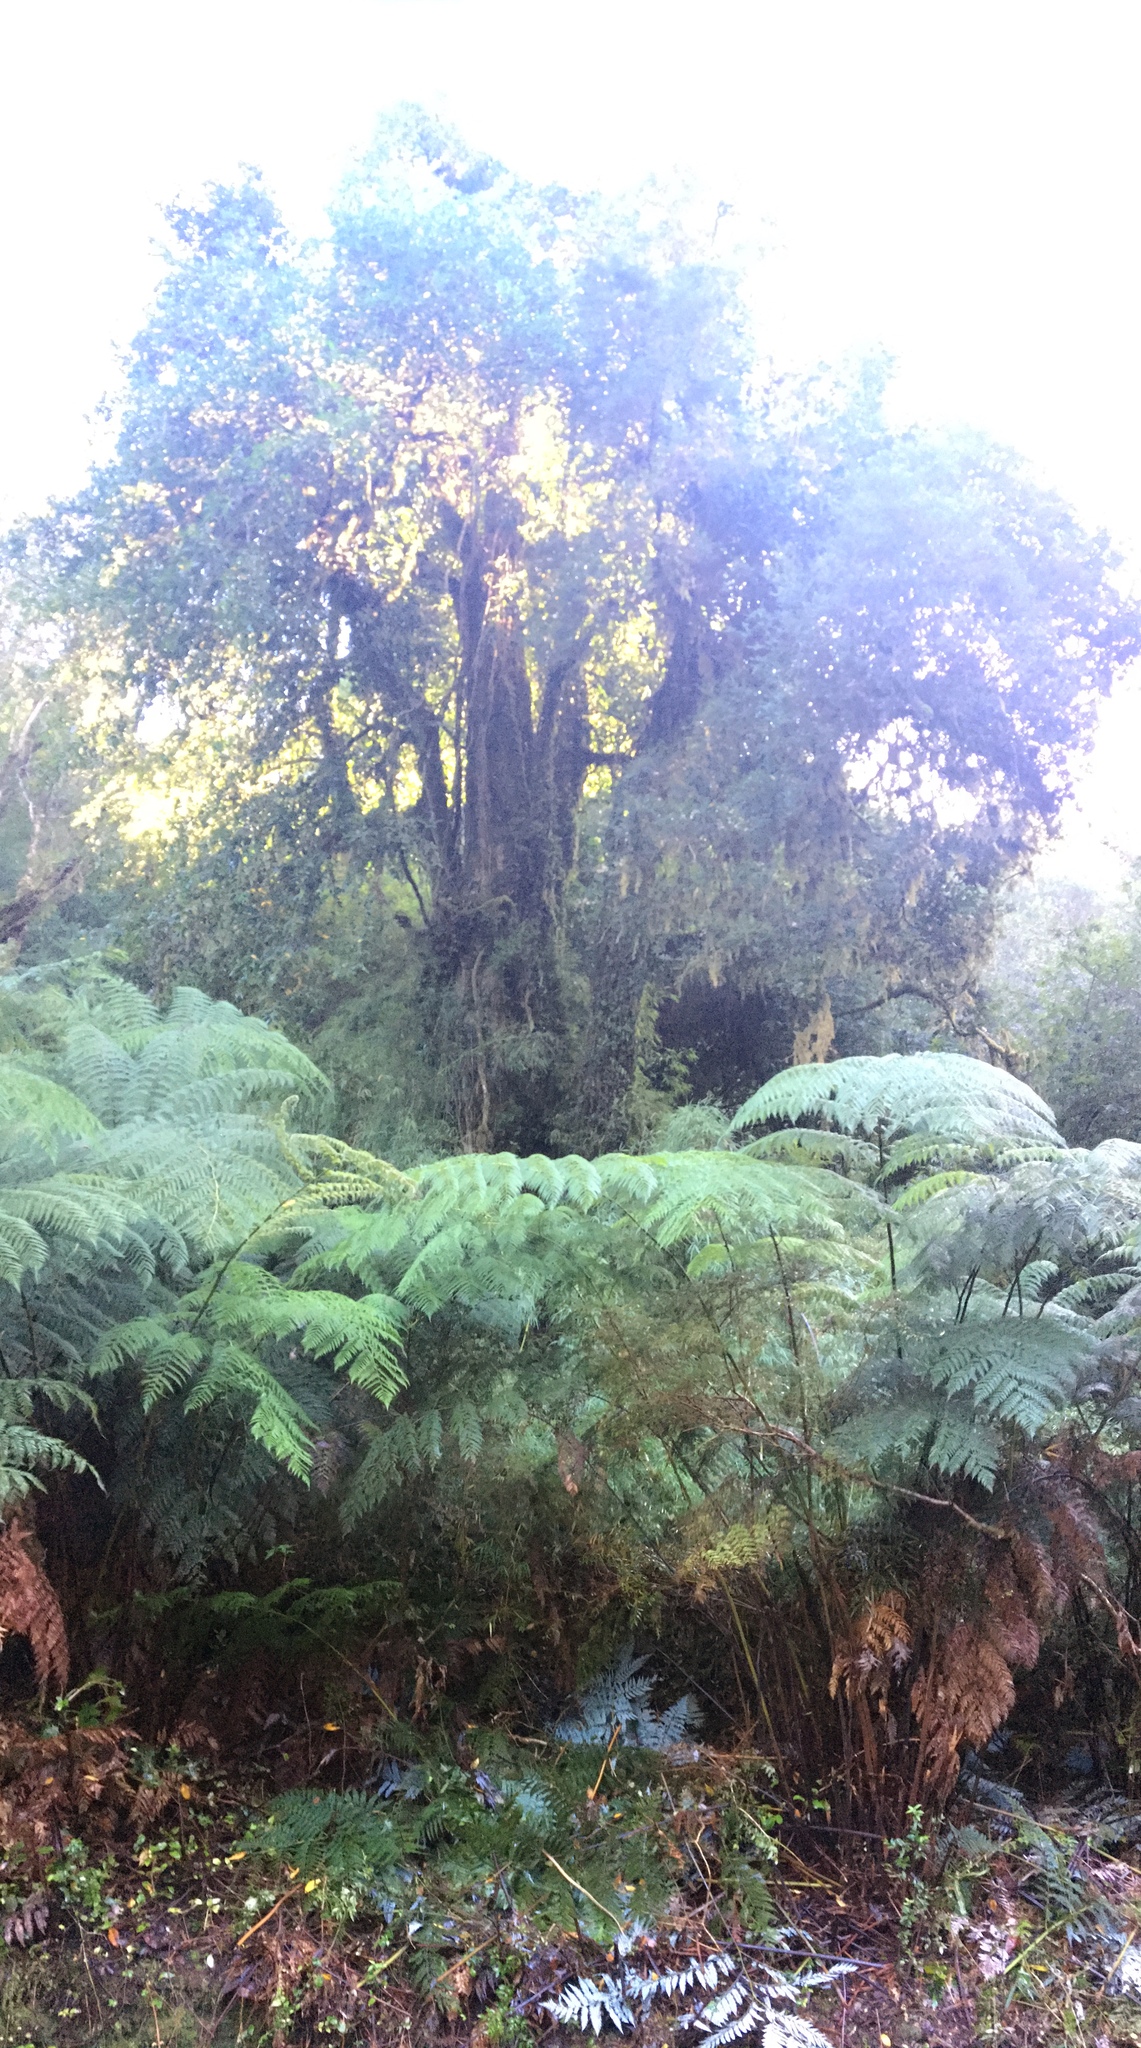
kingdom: Plantae
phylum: Tracheophyta
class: Polypodiopsida
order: Cyatheales
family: Dicksoniaceae
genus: Lophosoria
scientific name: Lophosoria quadripinnata
